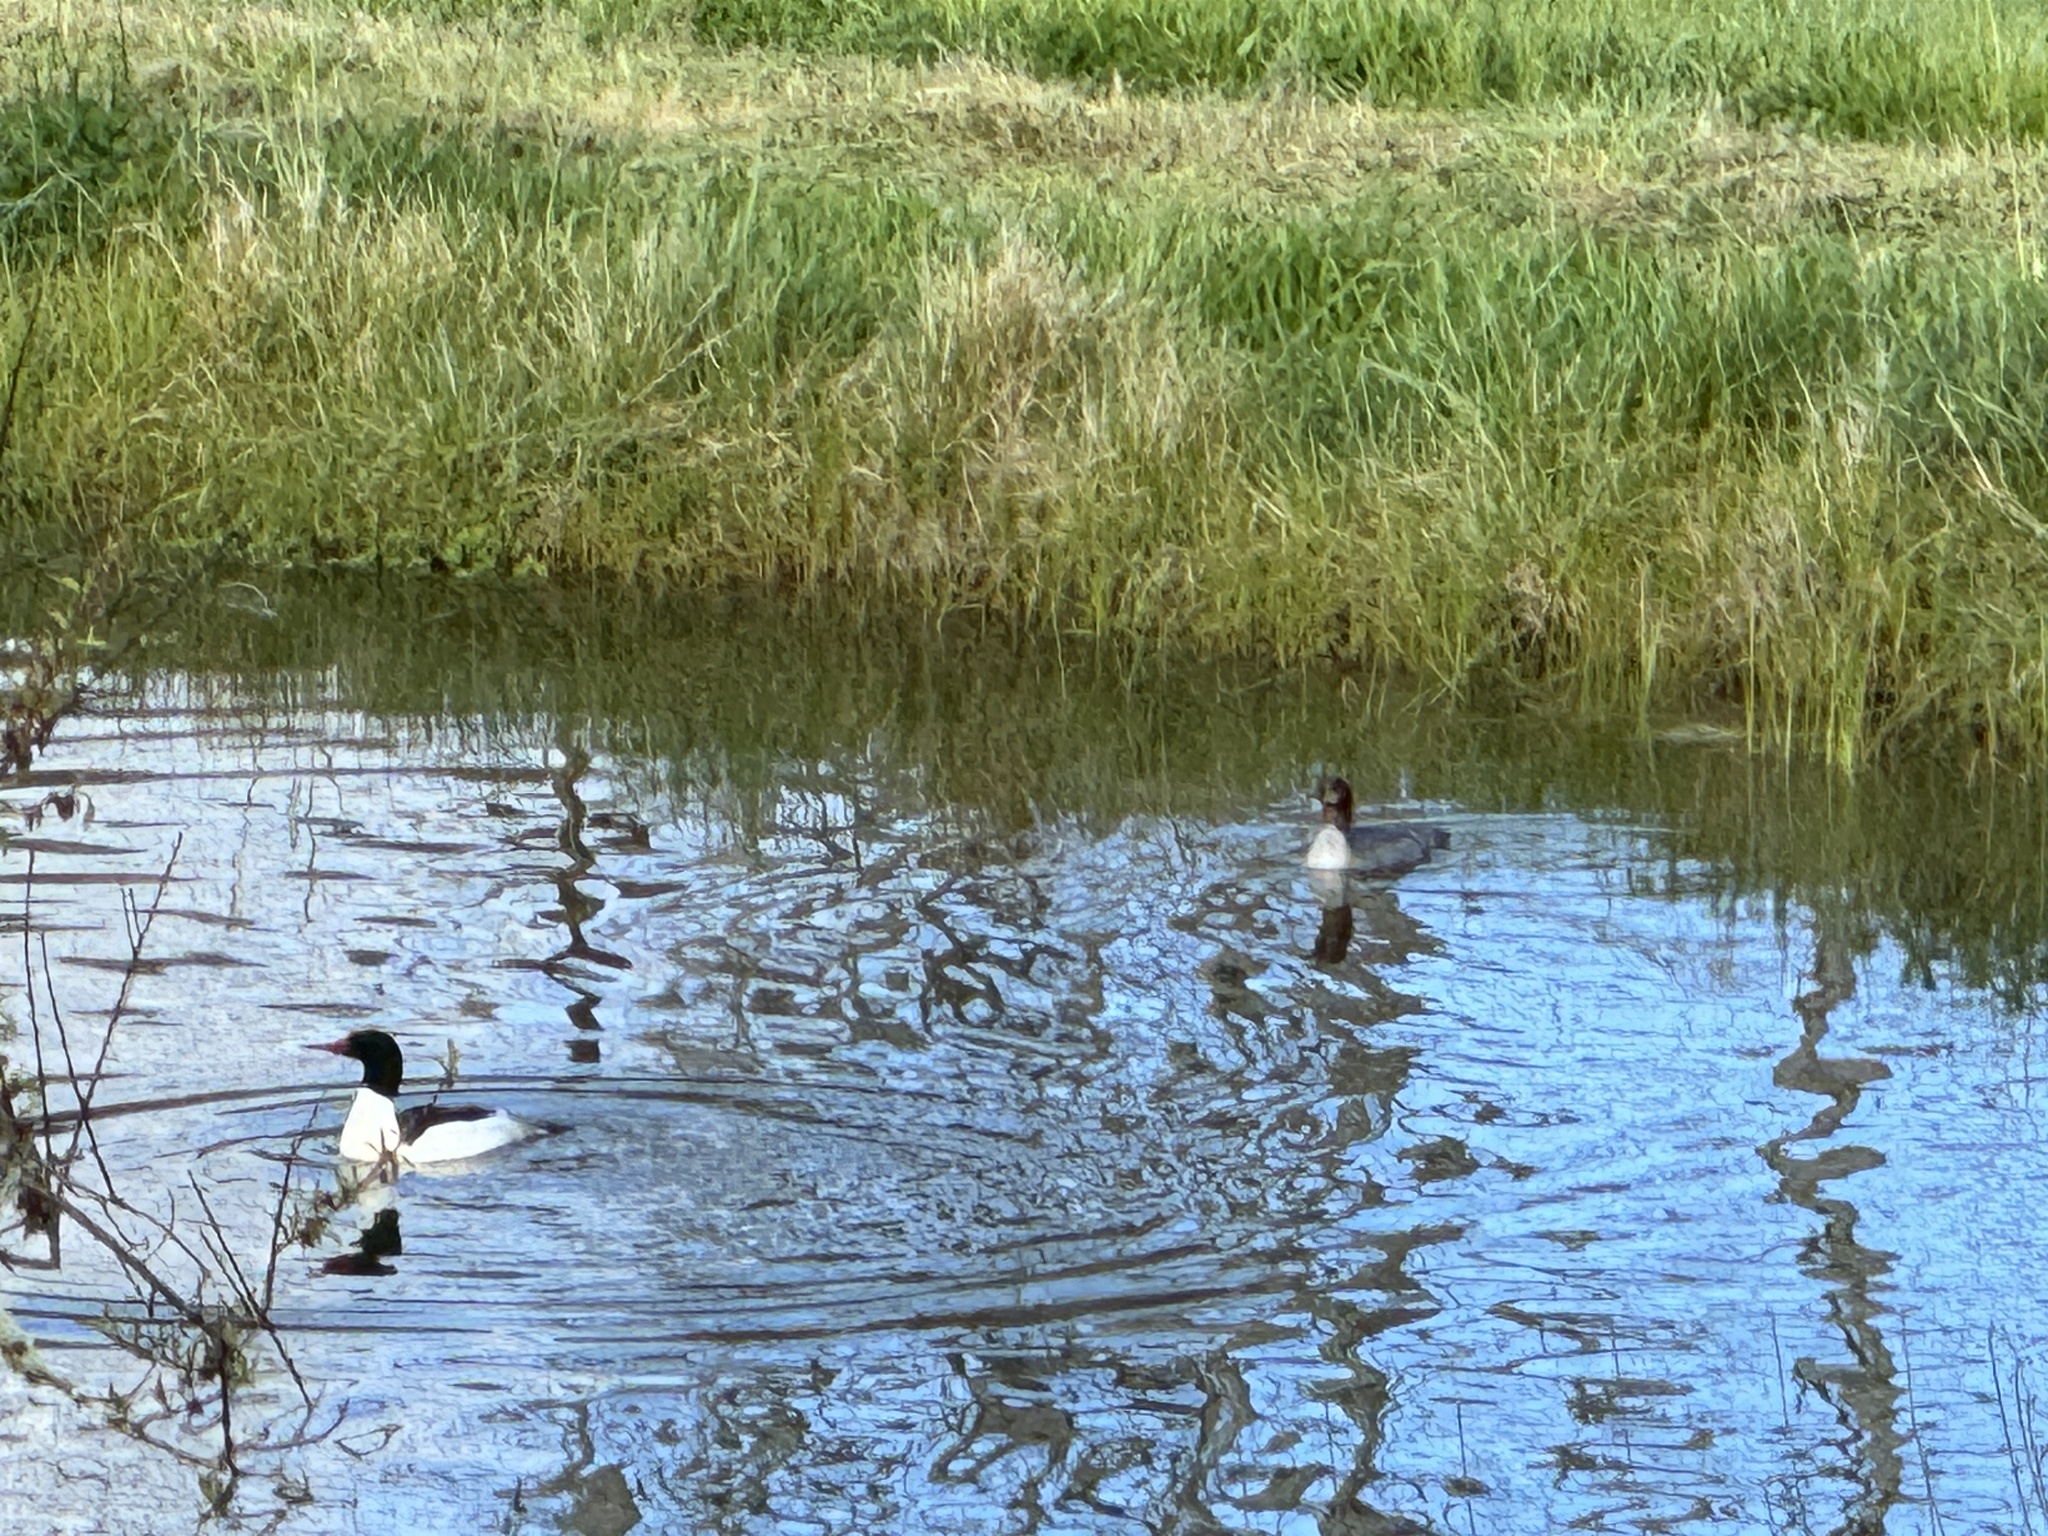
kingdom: Animalia
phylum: Chordata
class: Aves
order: Anseriformes
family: Anatidae
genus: Mergus
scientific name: Mergus merganser
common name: Common merganser
